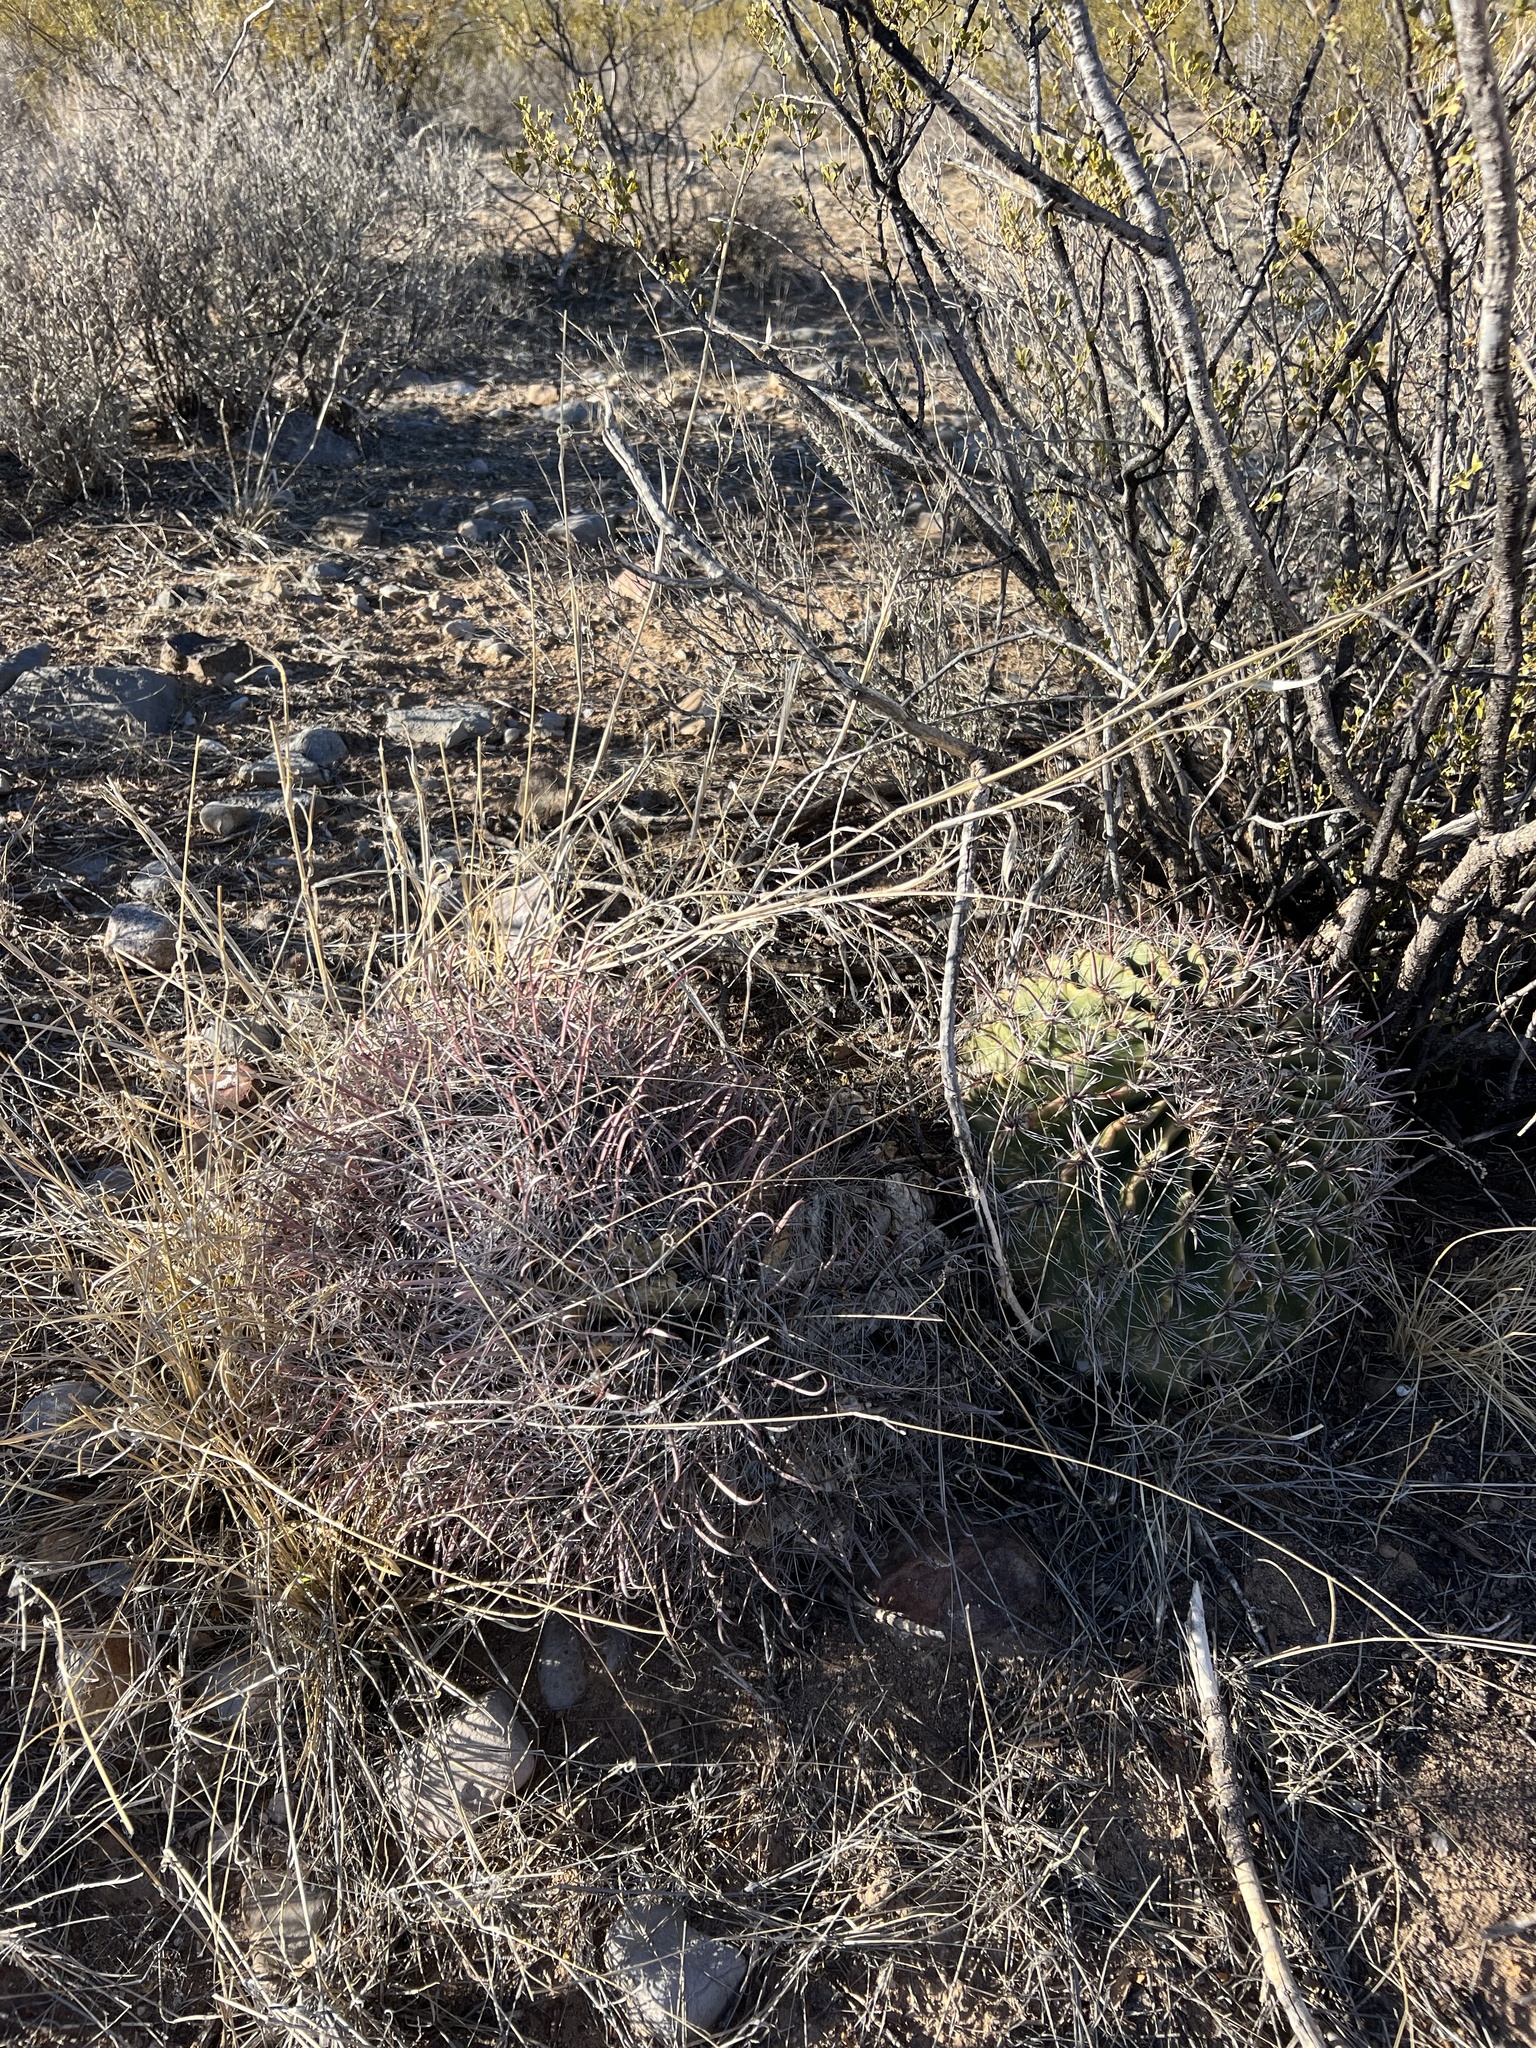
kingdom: Plantae
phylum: Tracheophyta
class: Magnoliopsida
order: Caryophyllales
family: Cactaceae
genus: Ferocactus
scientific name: Ferocactus wislizeni
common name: Candy barrel cactus
